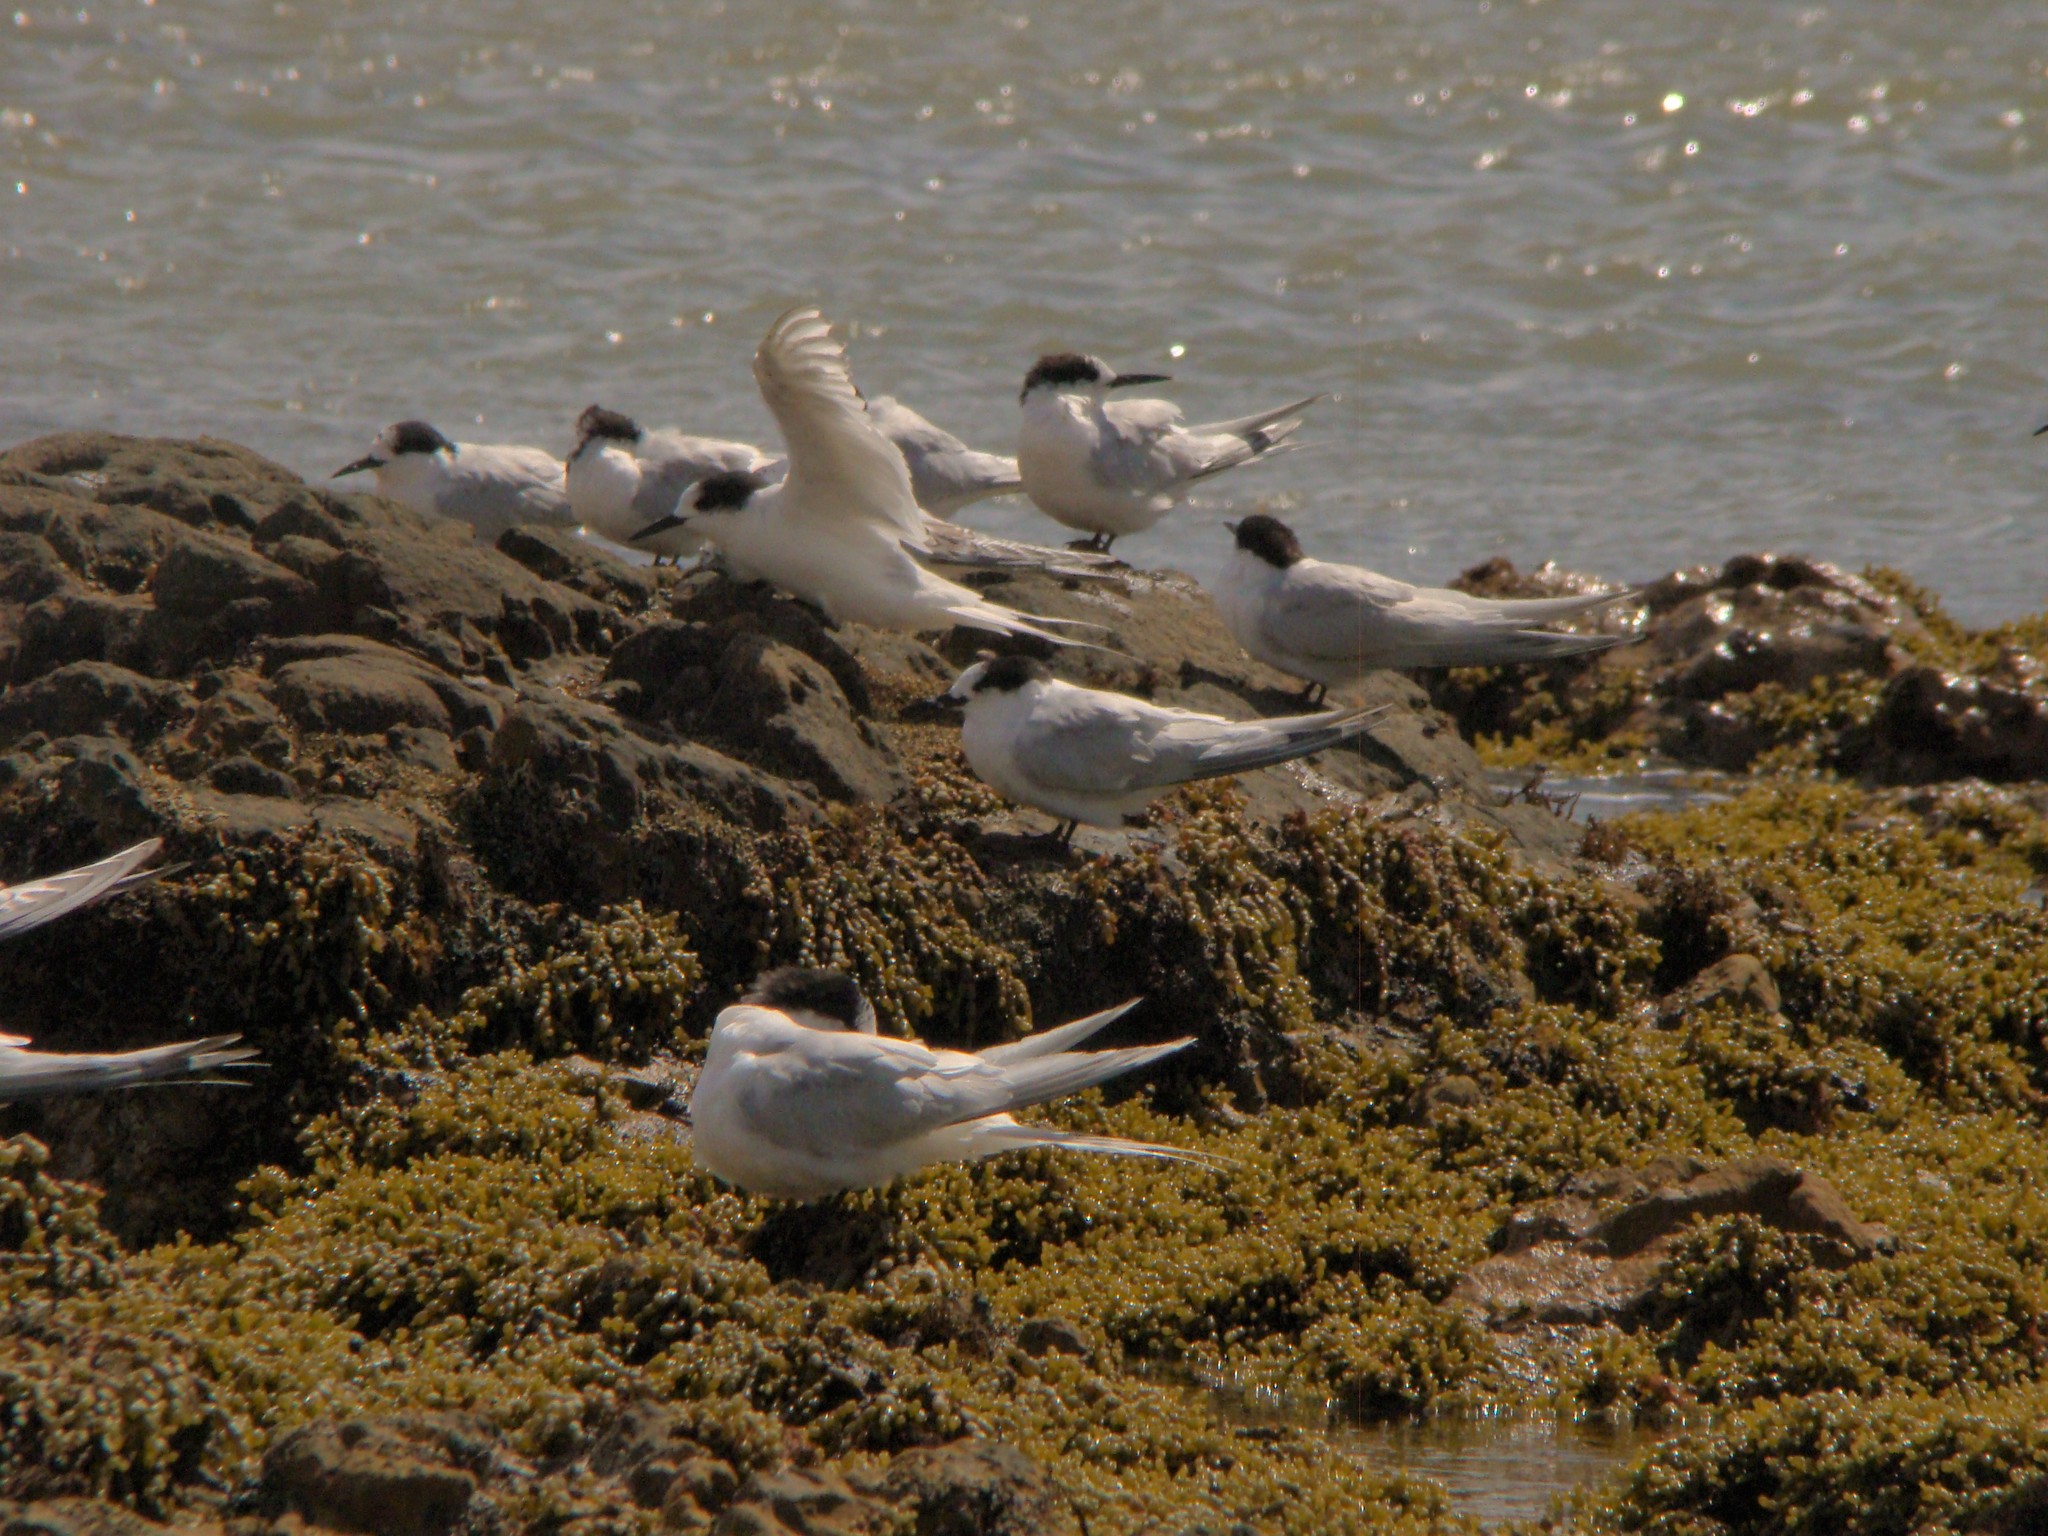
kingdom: Animalia
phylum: Chordata
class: Aves
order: Charadriiformes
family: Laridae
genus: Sterna
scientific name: Sterna striata
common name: White-fronted tern
